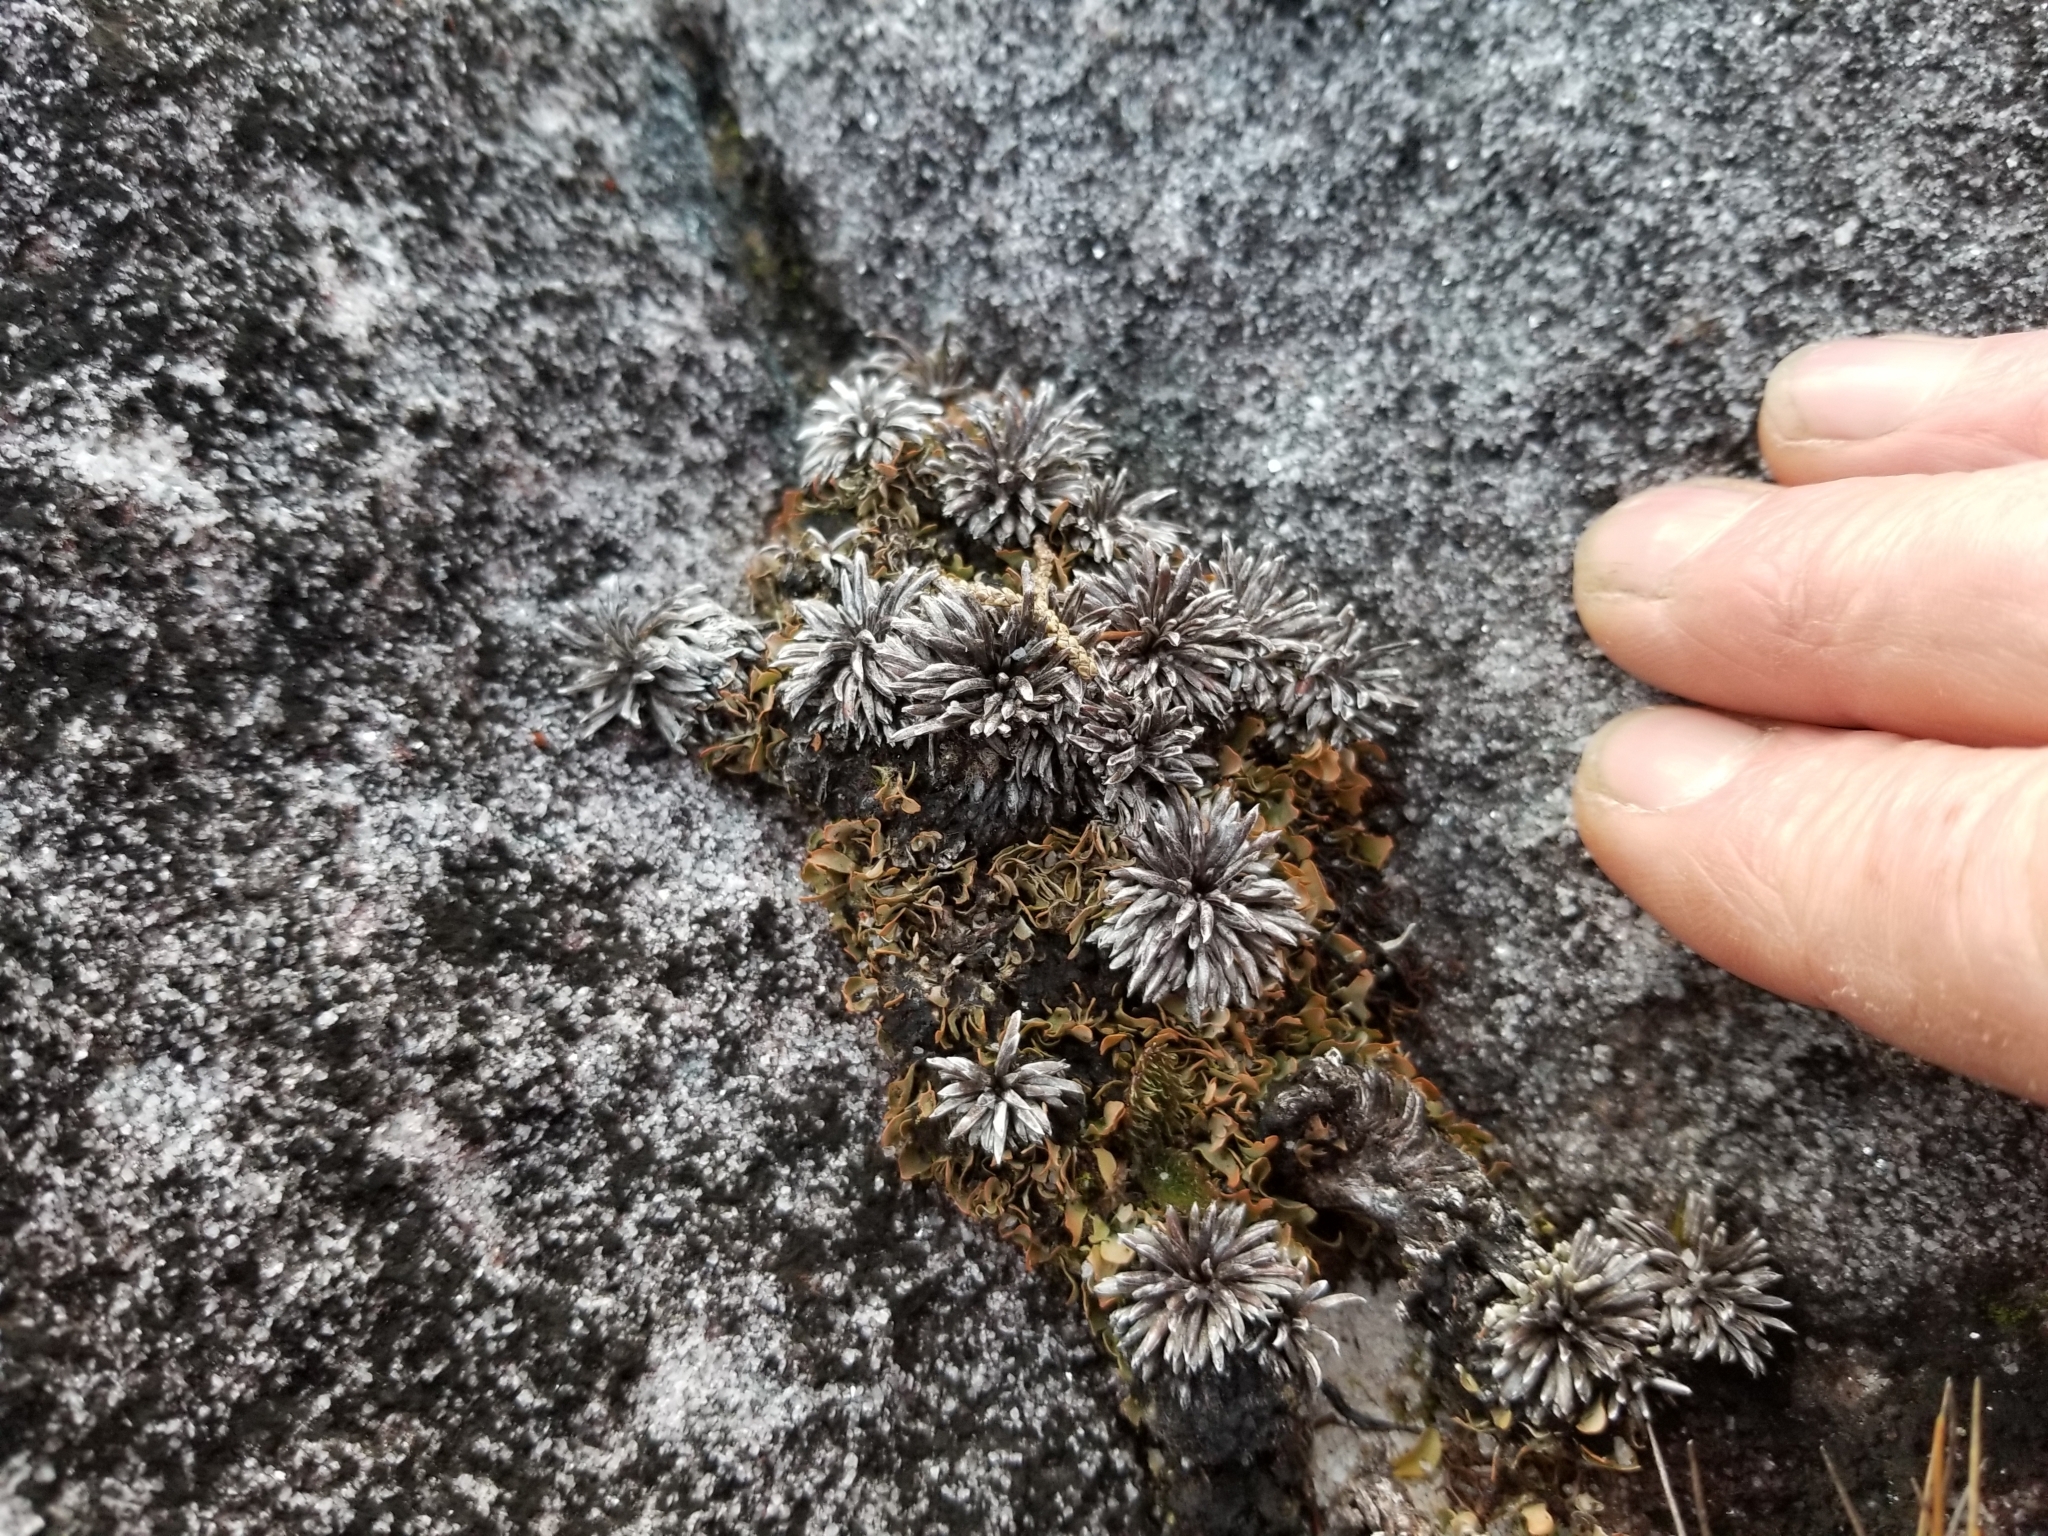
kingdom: Plantae
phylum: Tracheophyta
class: Magnoliopsida
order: Asterales
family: Asteraceae
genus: Celmisia
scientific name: Celmisia similis
